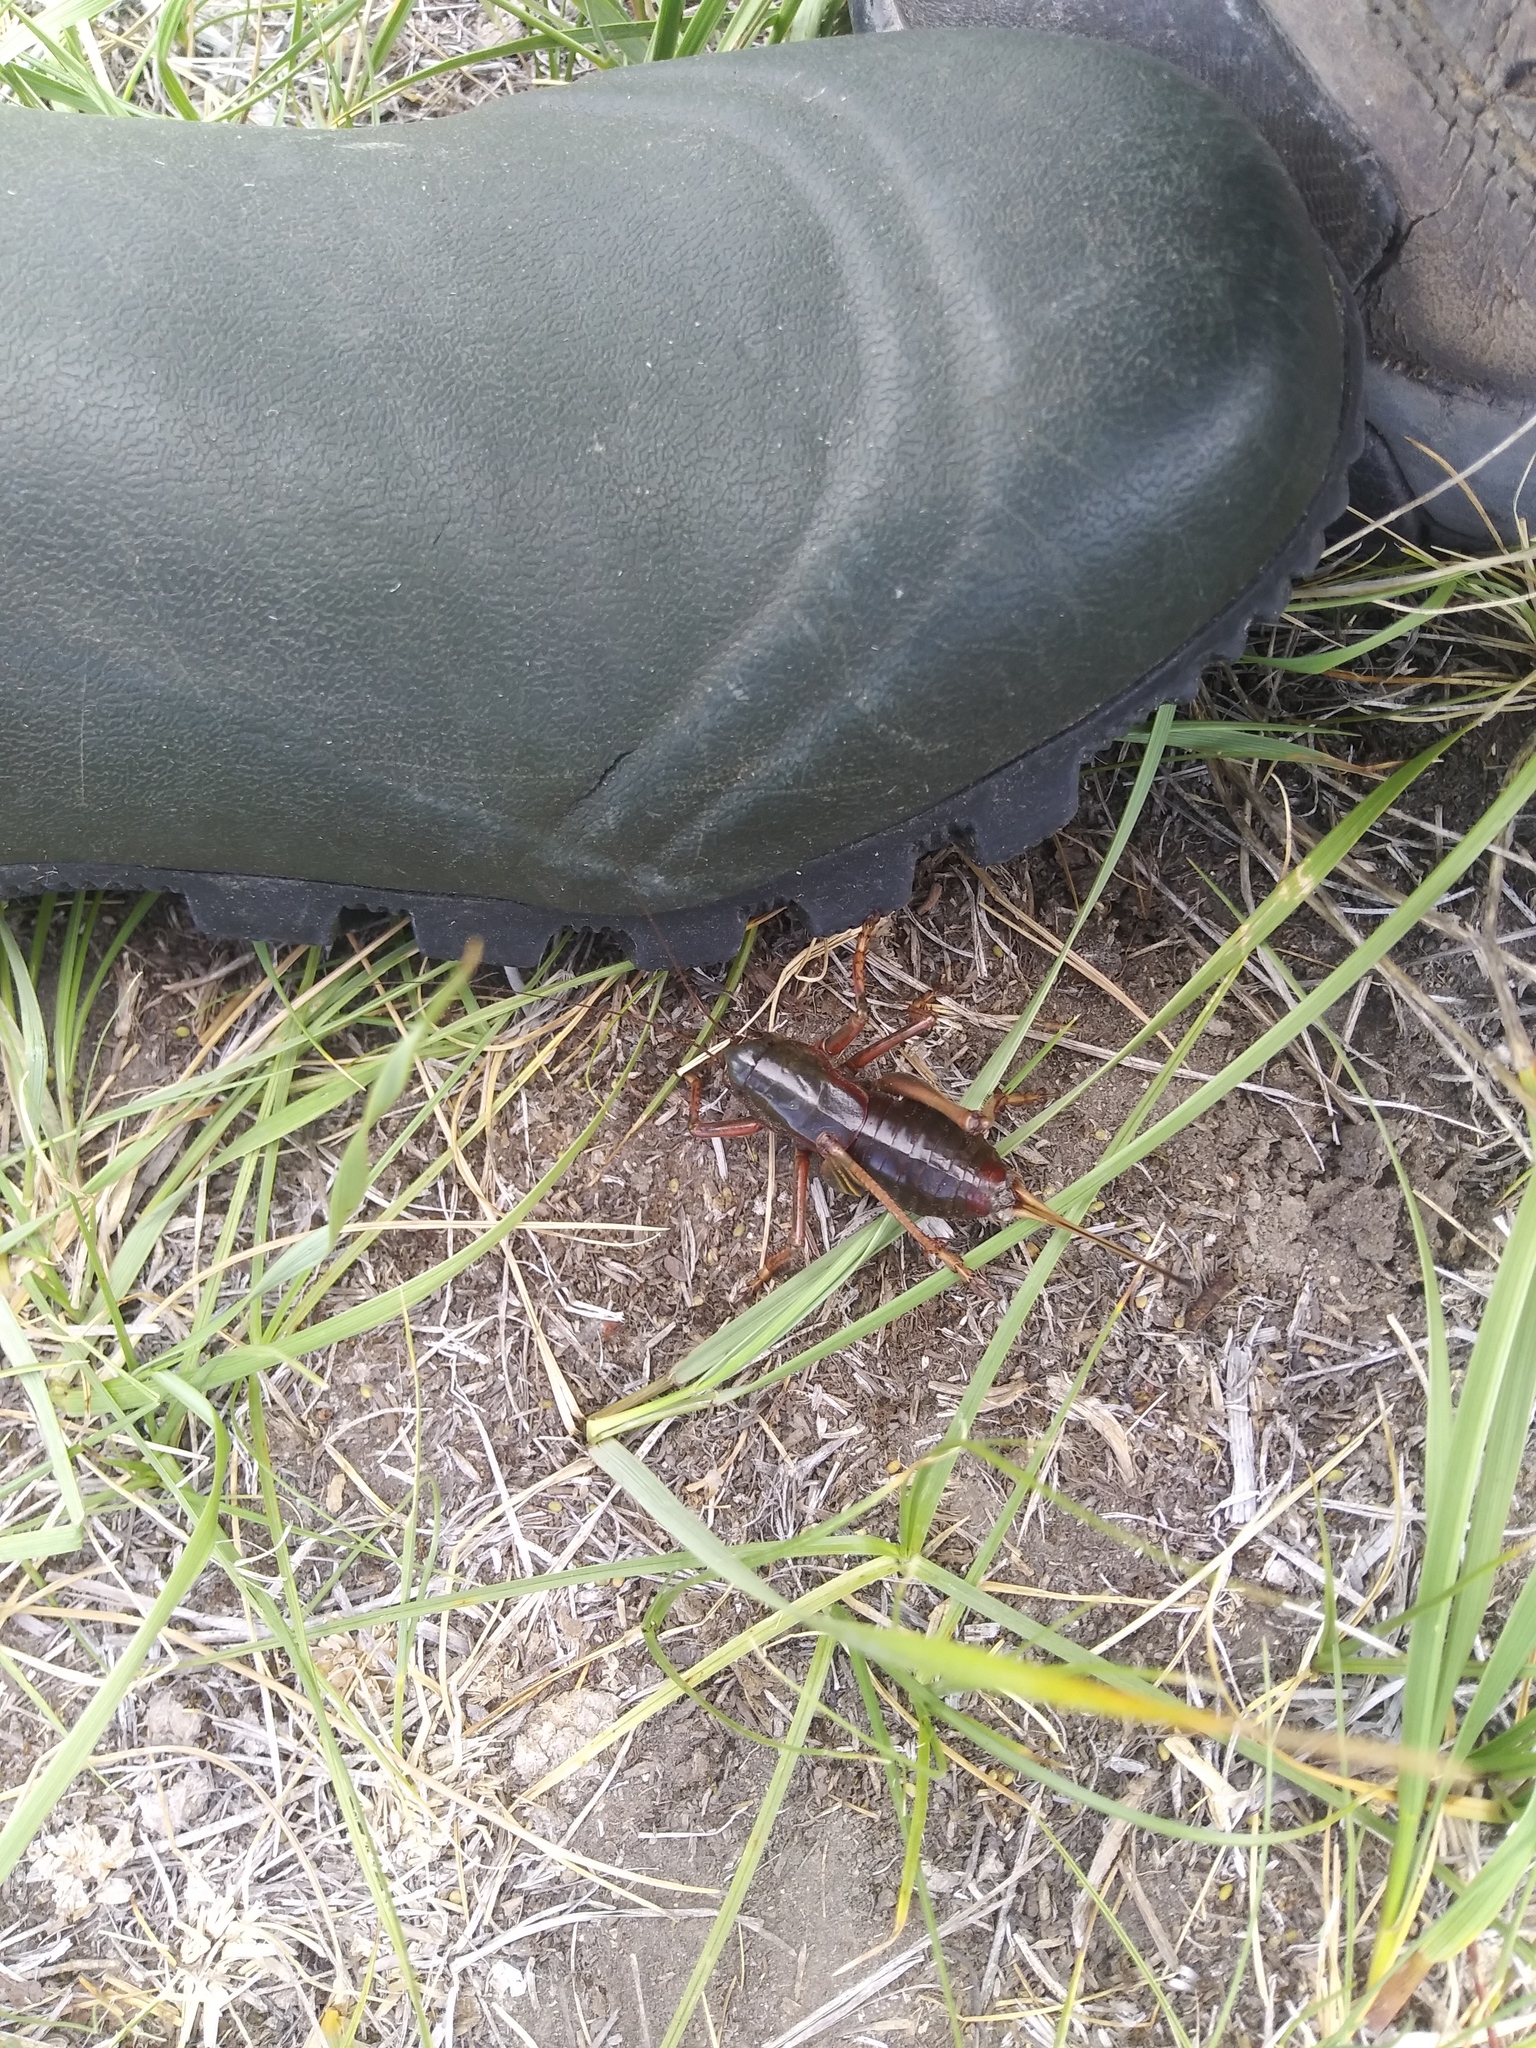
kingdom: Animalia
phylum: Arthropoda
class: Insecta
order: Orthoptera
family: Tettigoniidae
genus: Anabrus
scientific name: Anabrus simplex
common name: Mormon cricket
